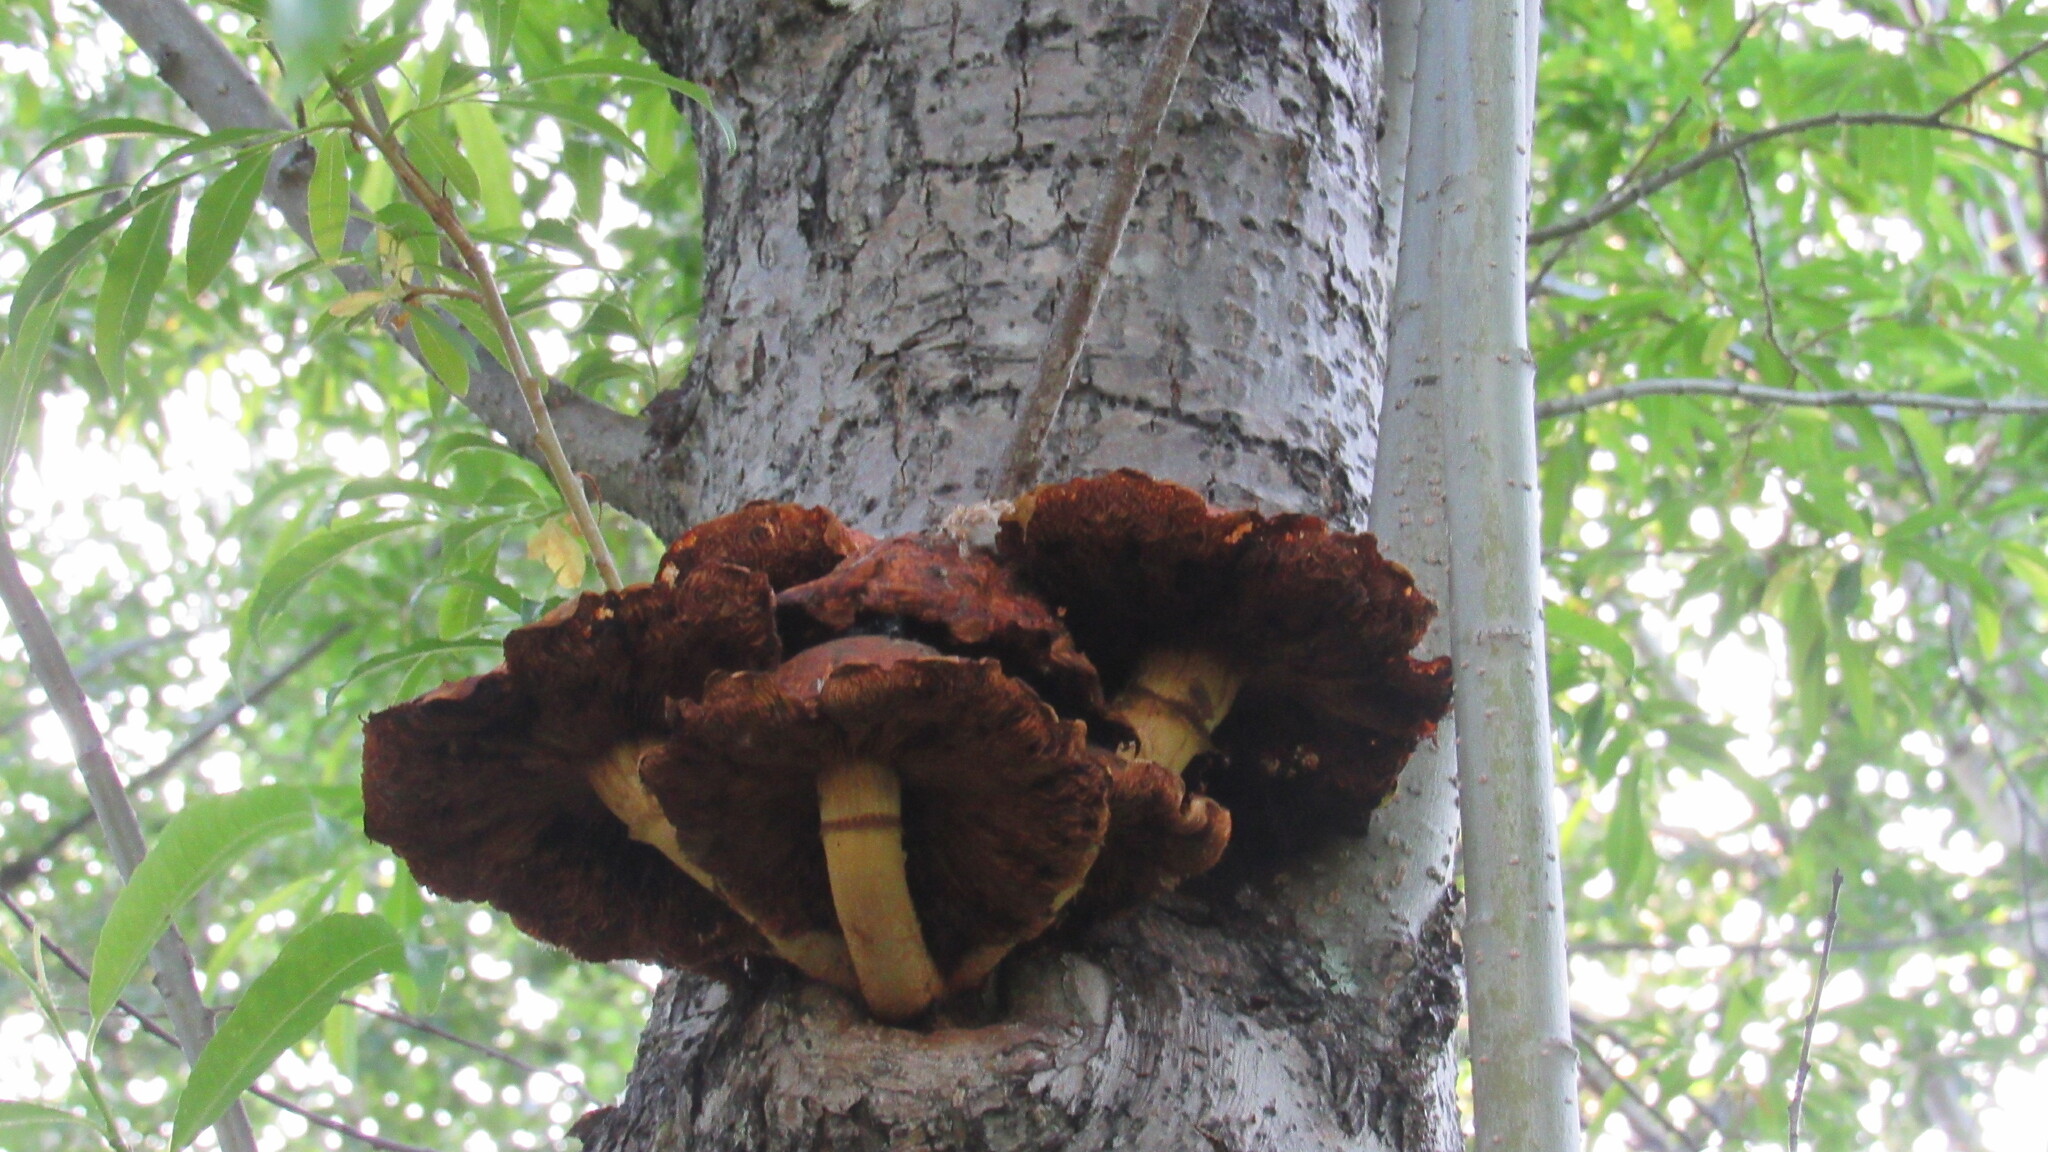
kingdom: Fungi
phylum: Basidiomycota
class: Agaricomycetes
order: Agaricales
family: Strophariaceae
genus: Pholiota
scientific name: Pholiota aurivella
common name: Golden scalycap
